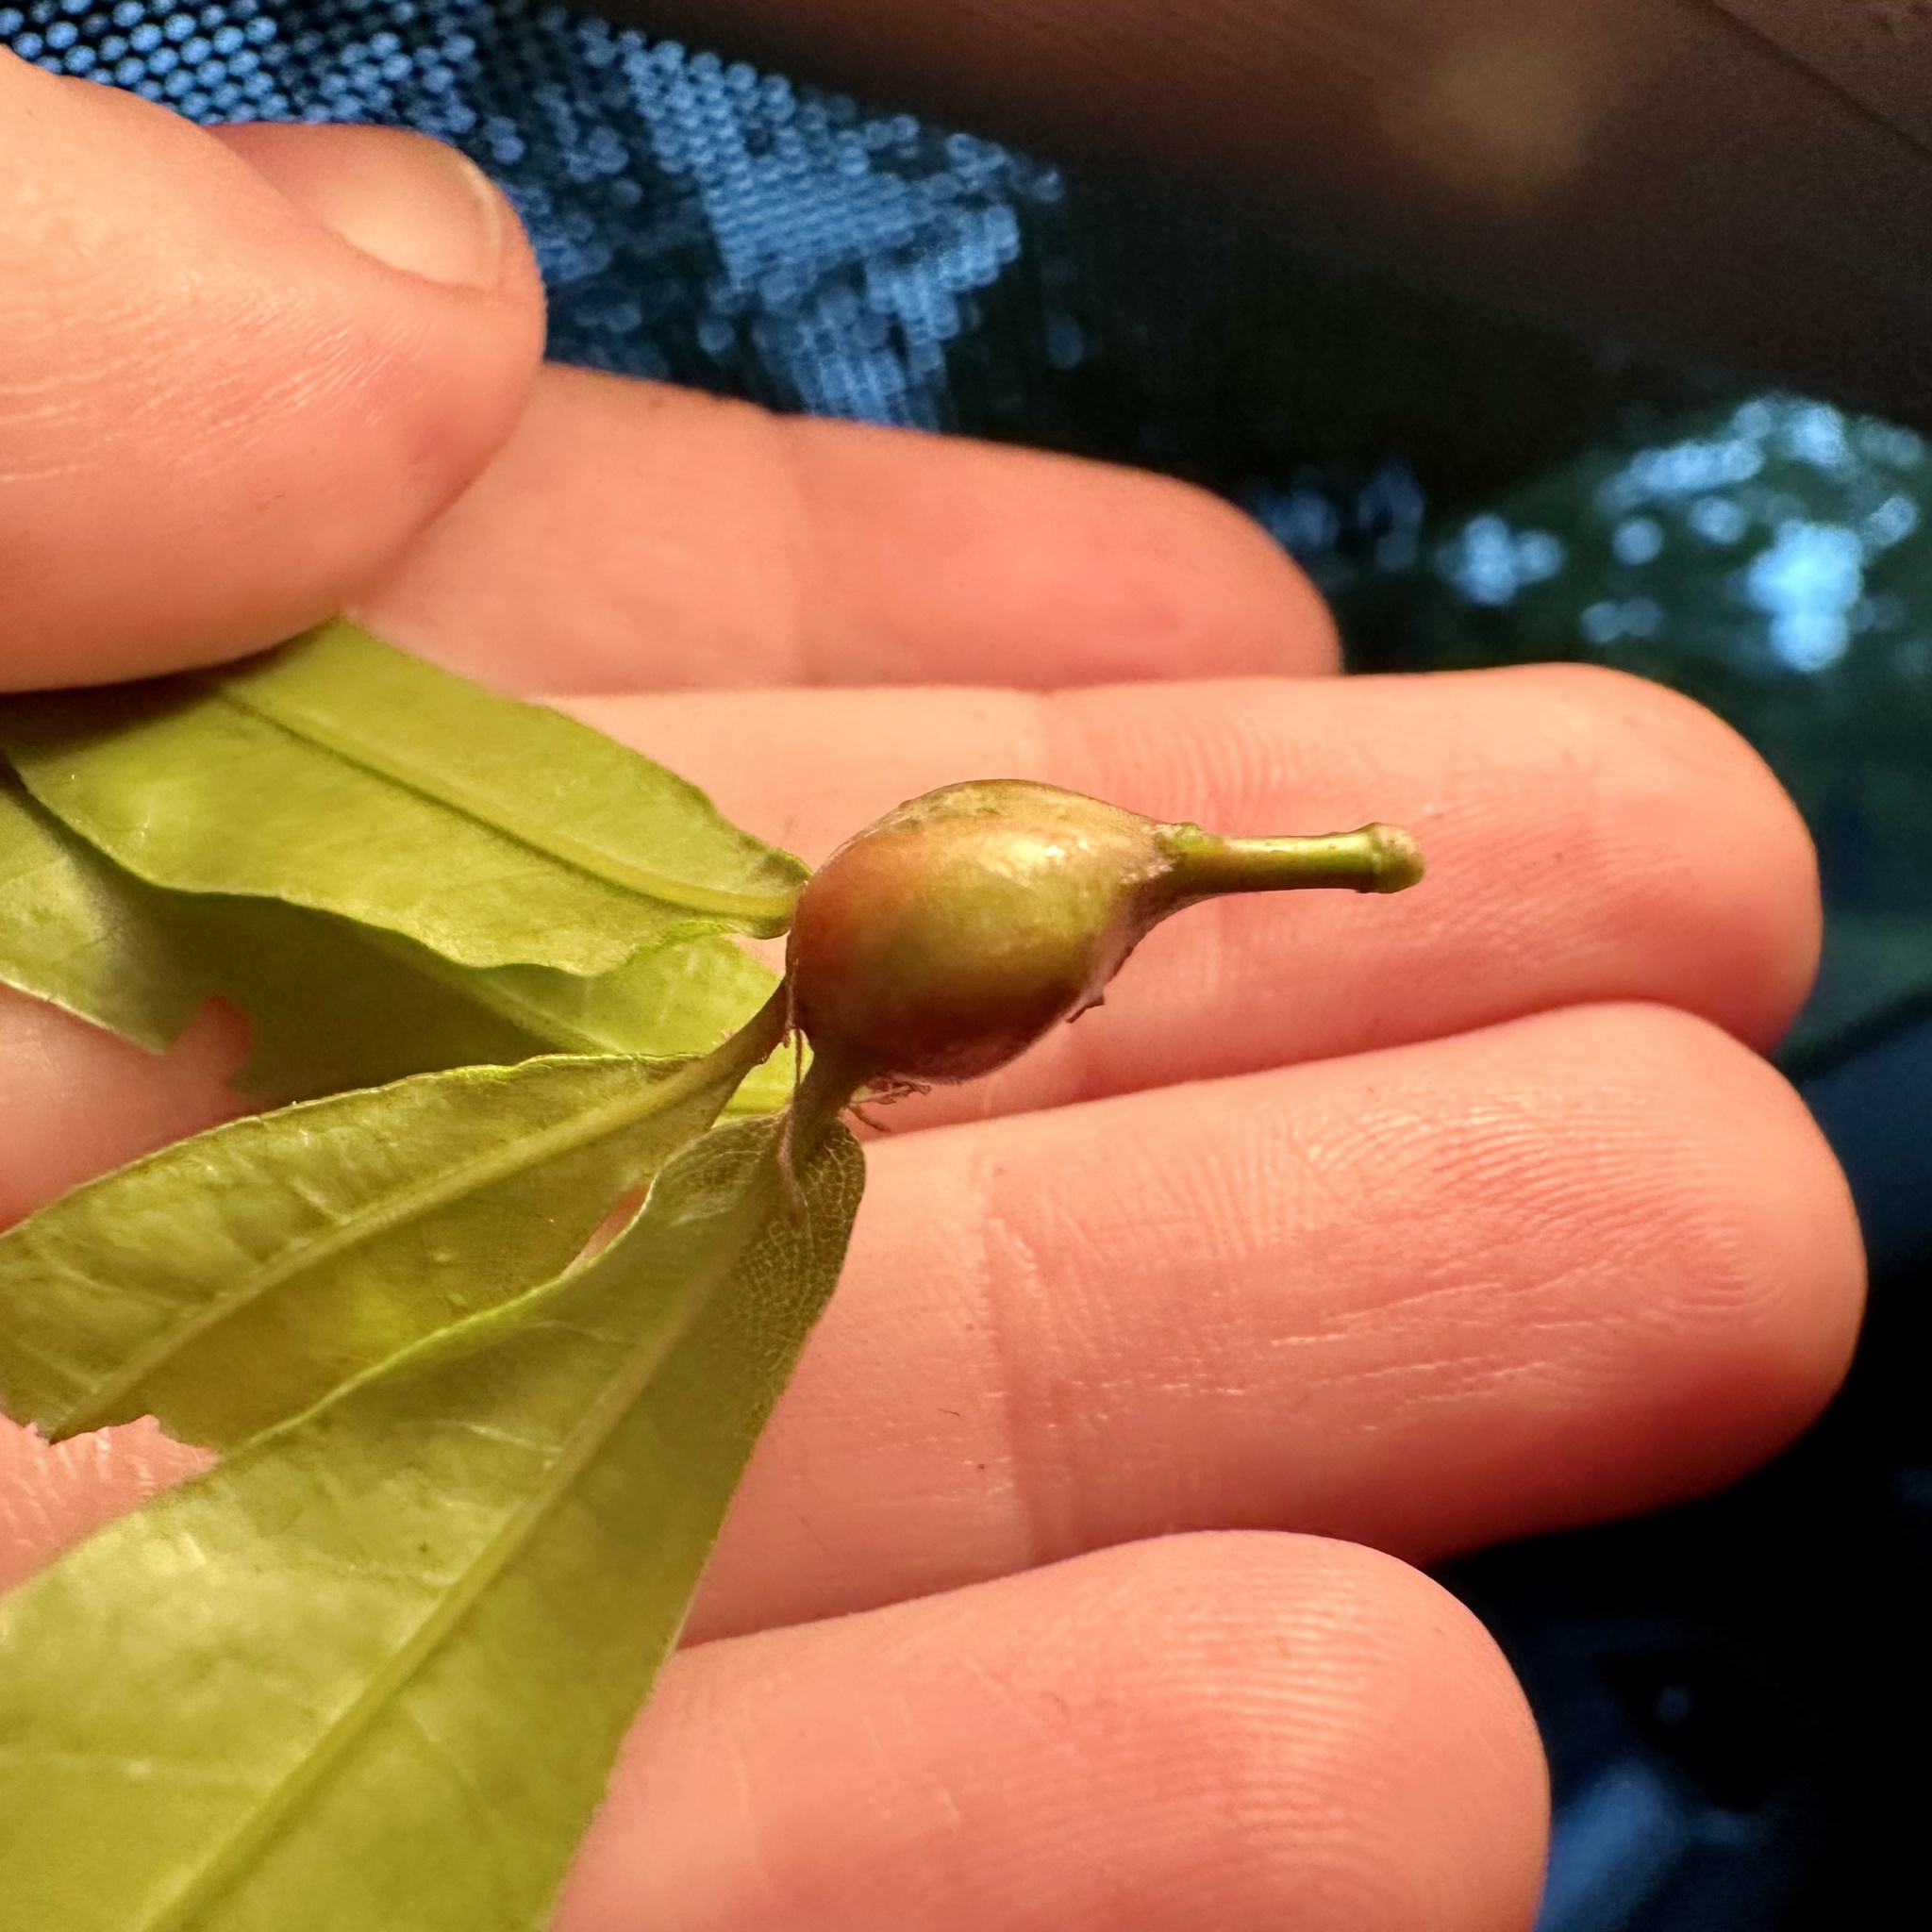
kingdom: Animalia
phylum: Arthropoda
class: Insecta
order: Hymenoptera
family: Cynipidae
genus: Zapatella
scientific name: Zapatella quercusphellos
